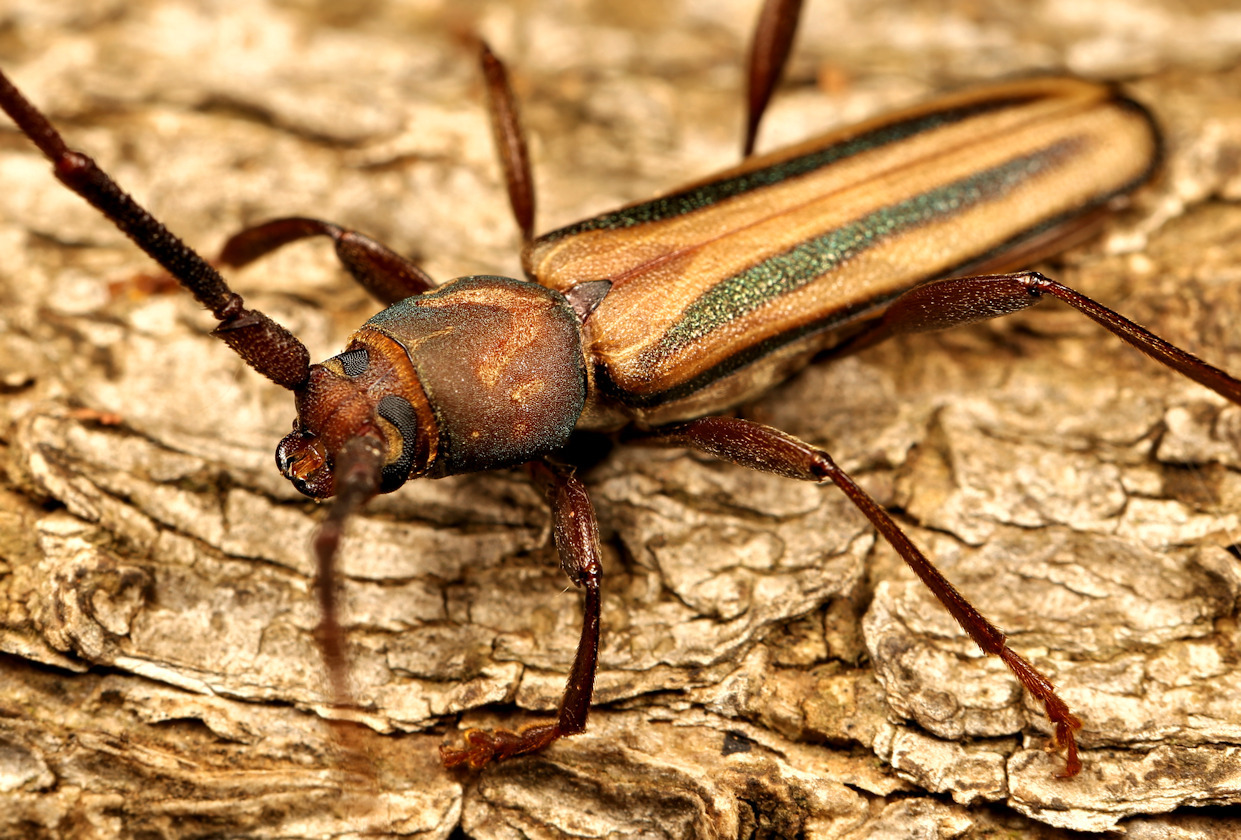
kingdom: Animalia
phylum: Arthropoda
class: Insecta
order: Coleoptera
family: Cerambycidae
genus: Xystrocera
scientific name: Xystrocera dispar
